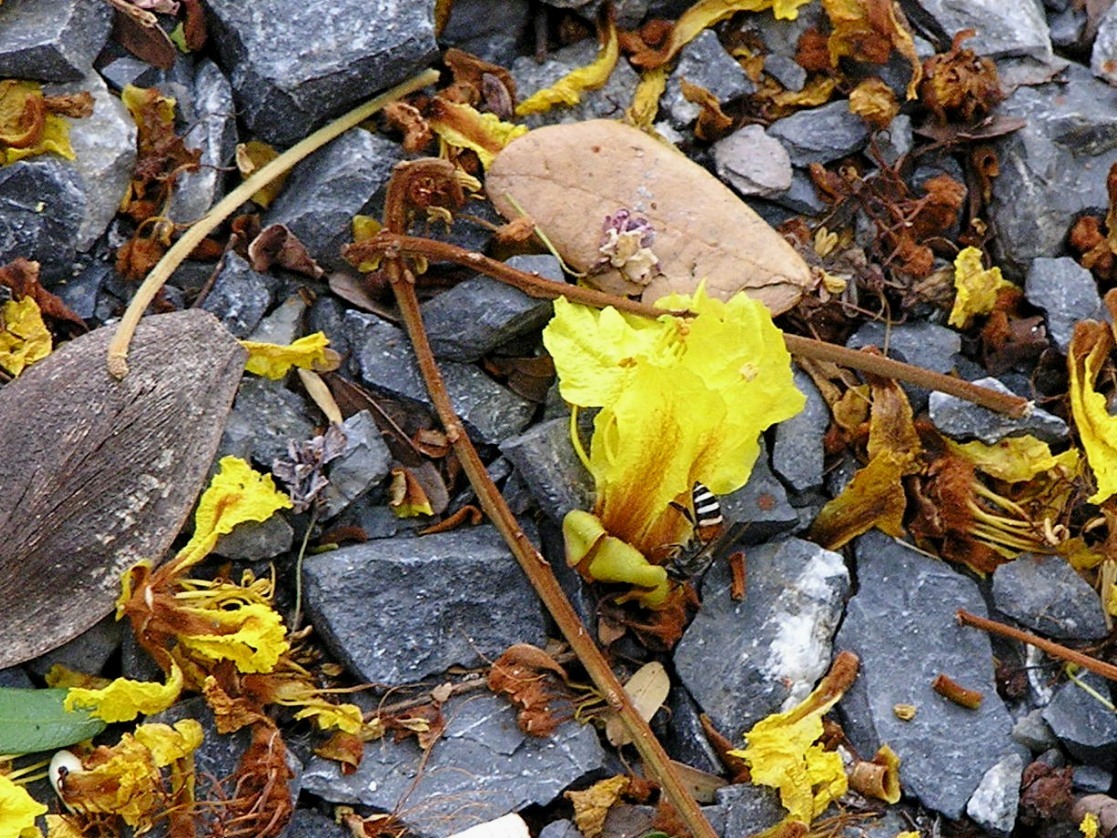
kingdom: Animalia
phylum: Arthropoda
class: Insecta
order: Hymenoptera
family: Apidae
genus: Apis
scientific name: Apis florea
